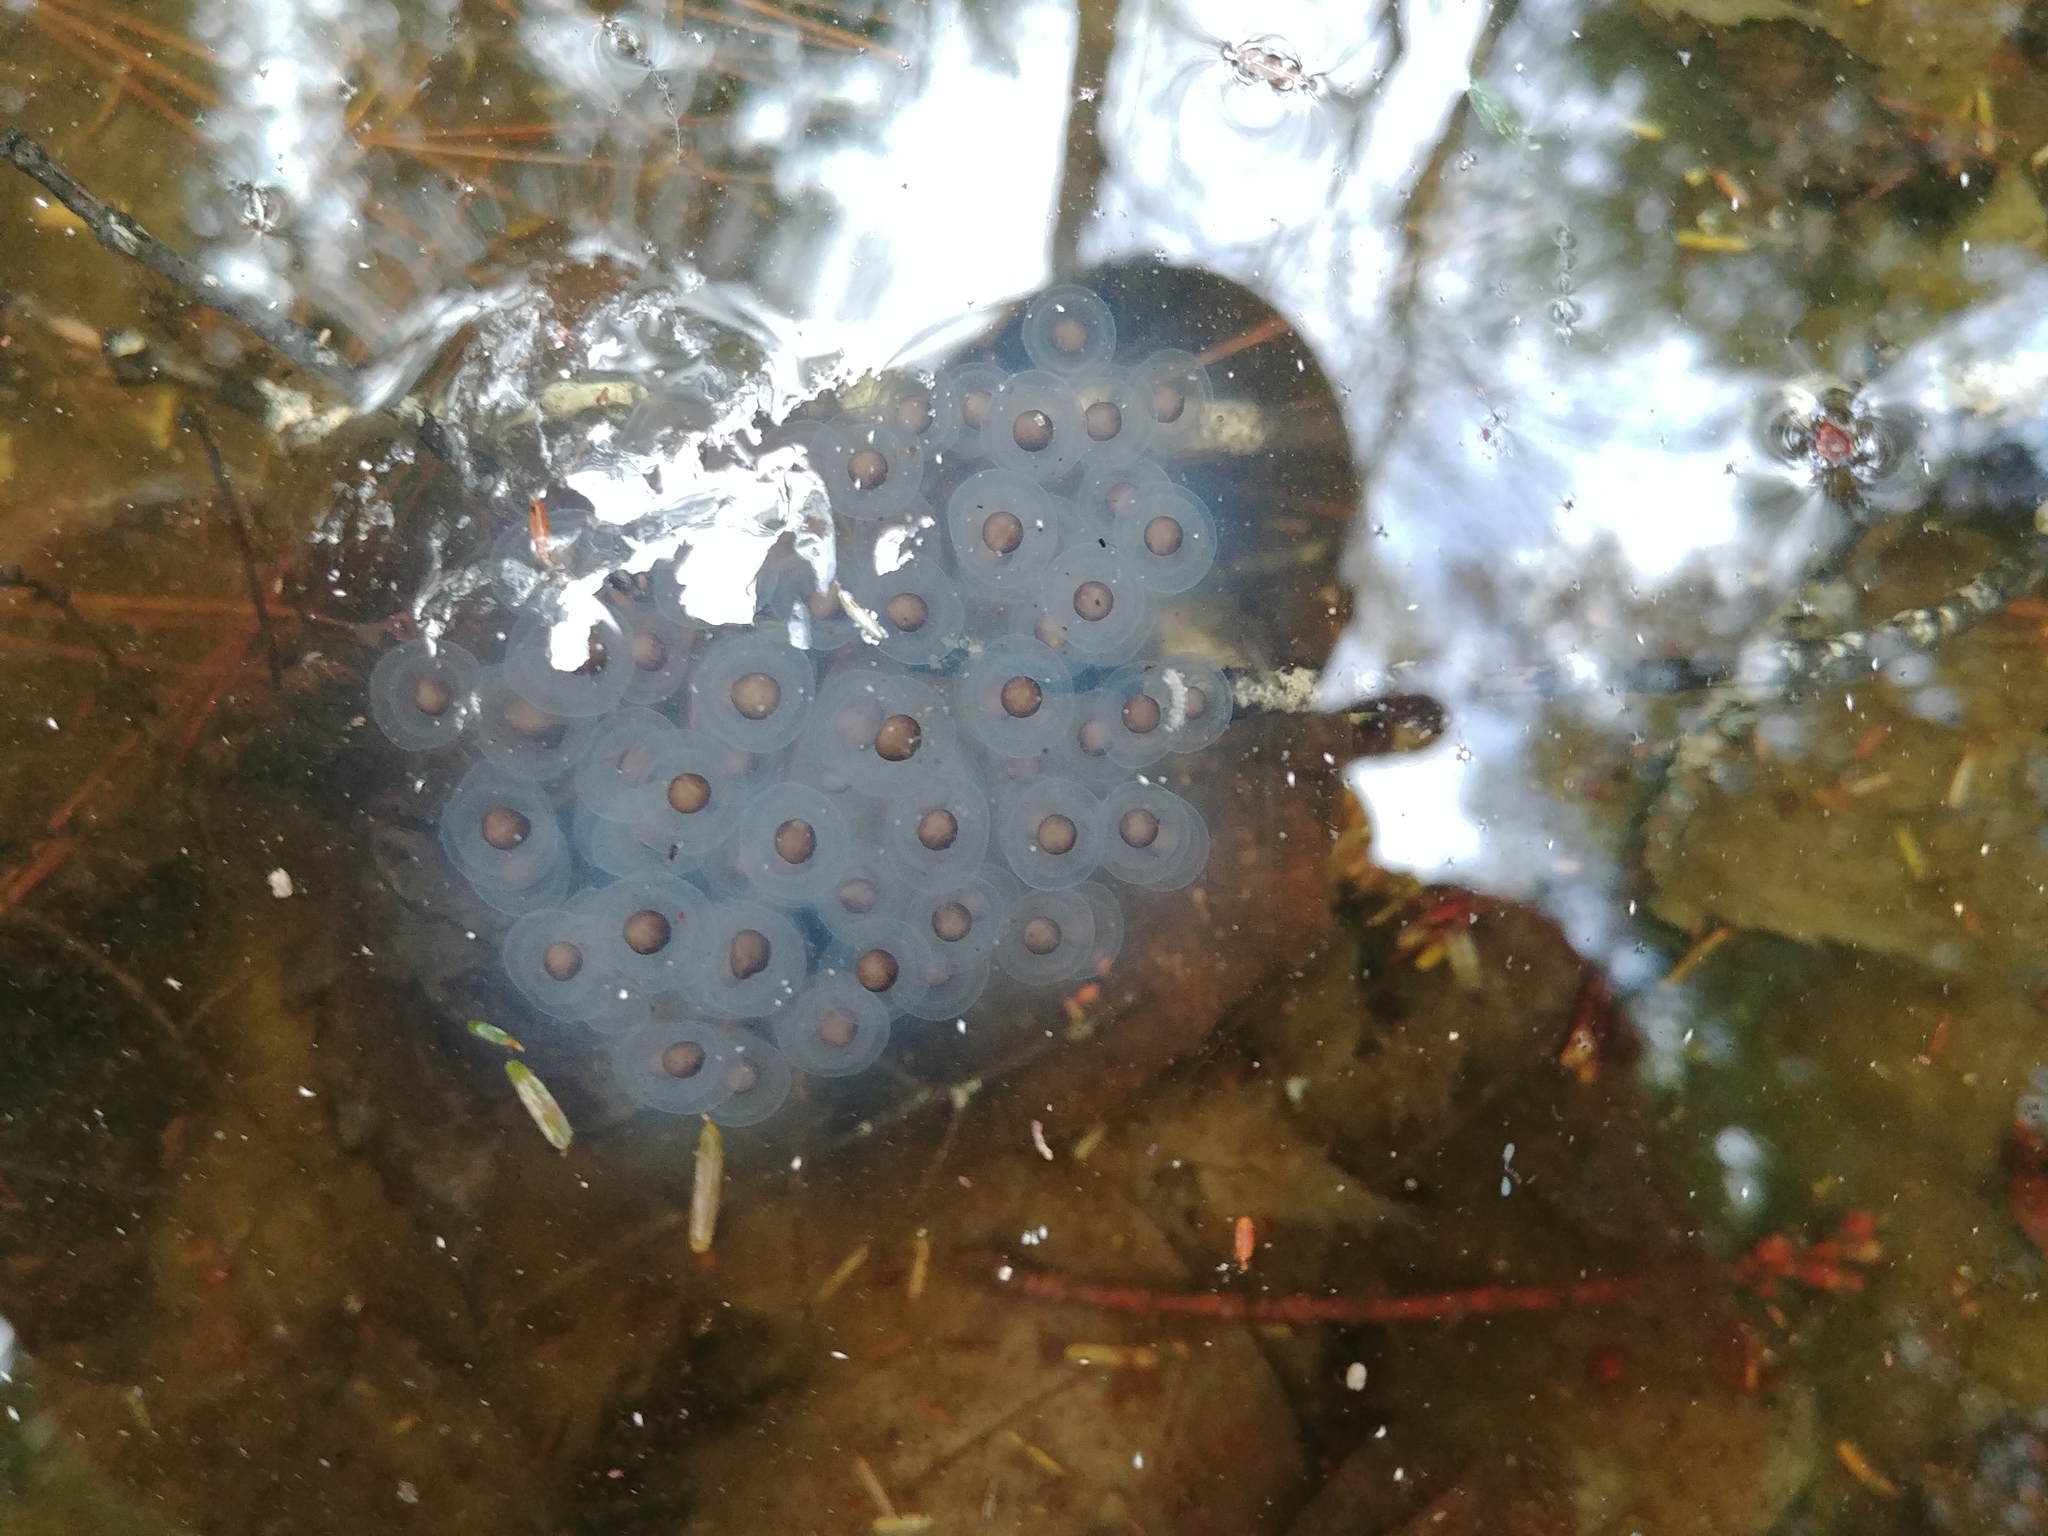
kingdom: Animalia
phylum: Chordata
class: Amphibia
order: Caudata
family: Ambystomatidae
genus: Ambystoma
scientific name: Ambystoma maculatum
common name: Spotted salamander
